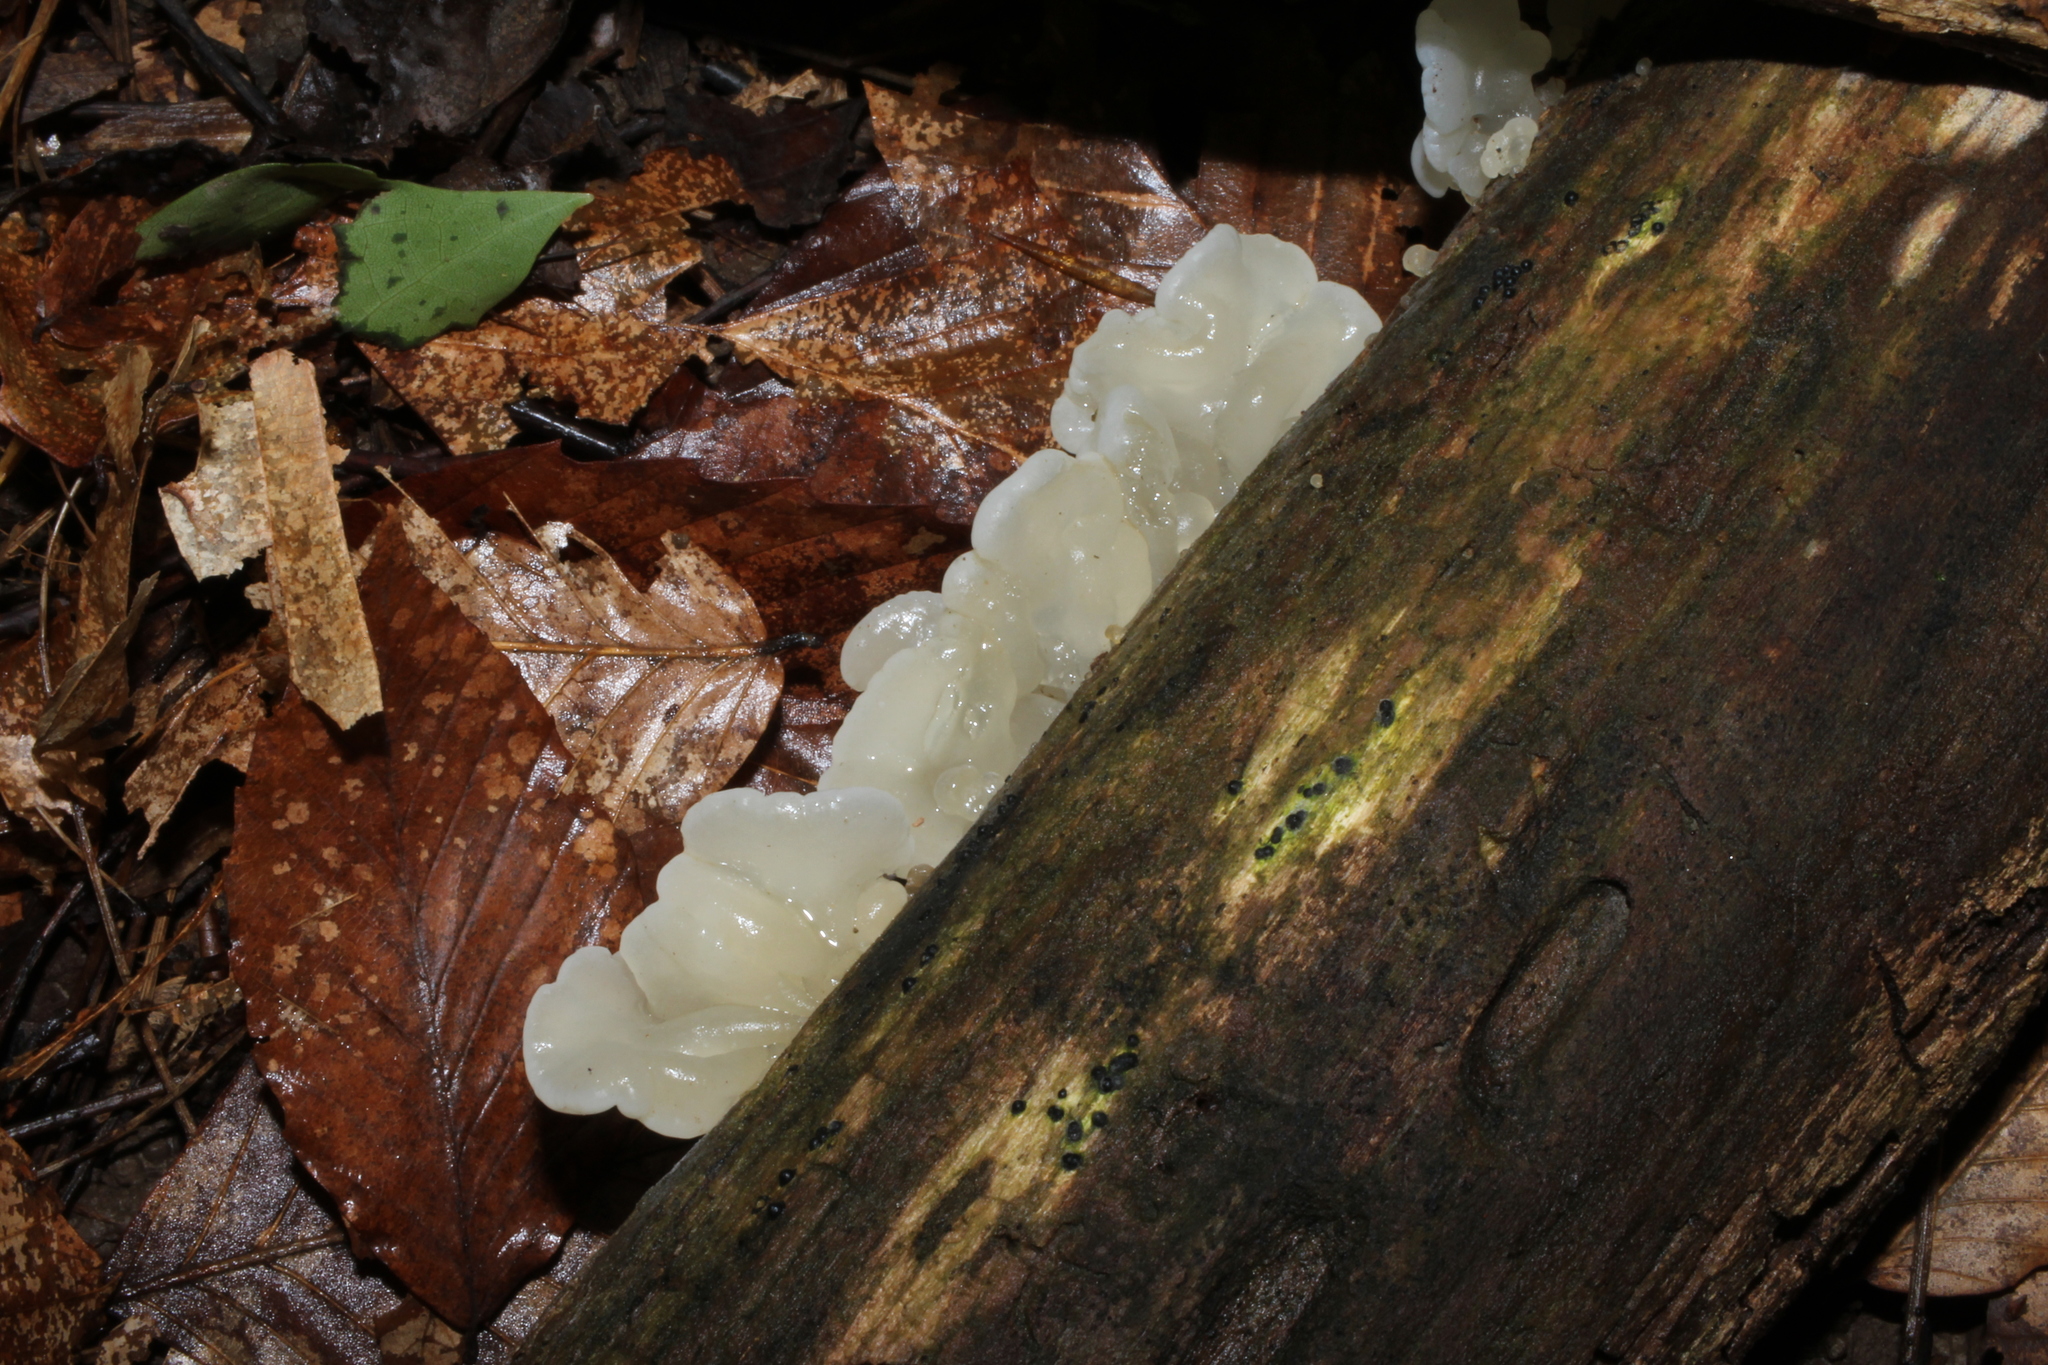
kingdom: Fungi
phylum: Basidiomycota
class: Agaricomycetes
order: Auriculariales
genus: Ductifera
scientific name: Ductifera pululahuana
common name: White jelly fungus
